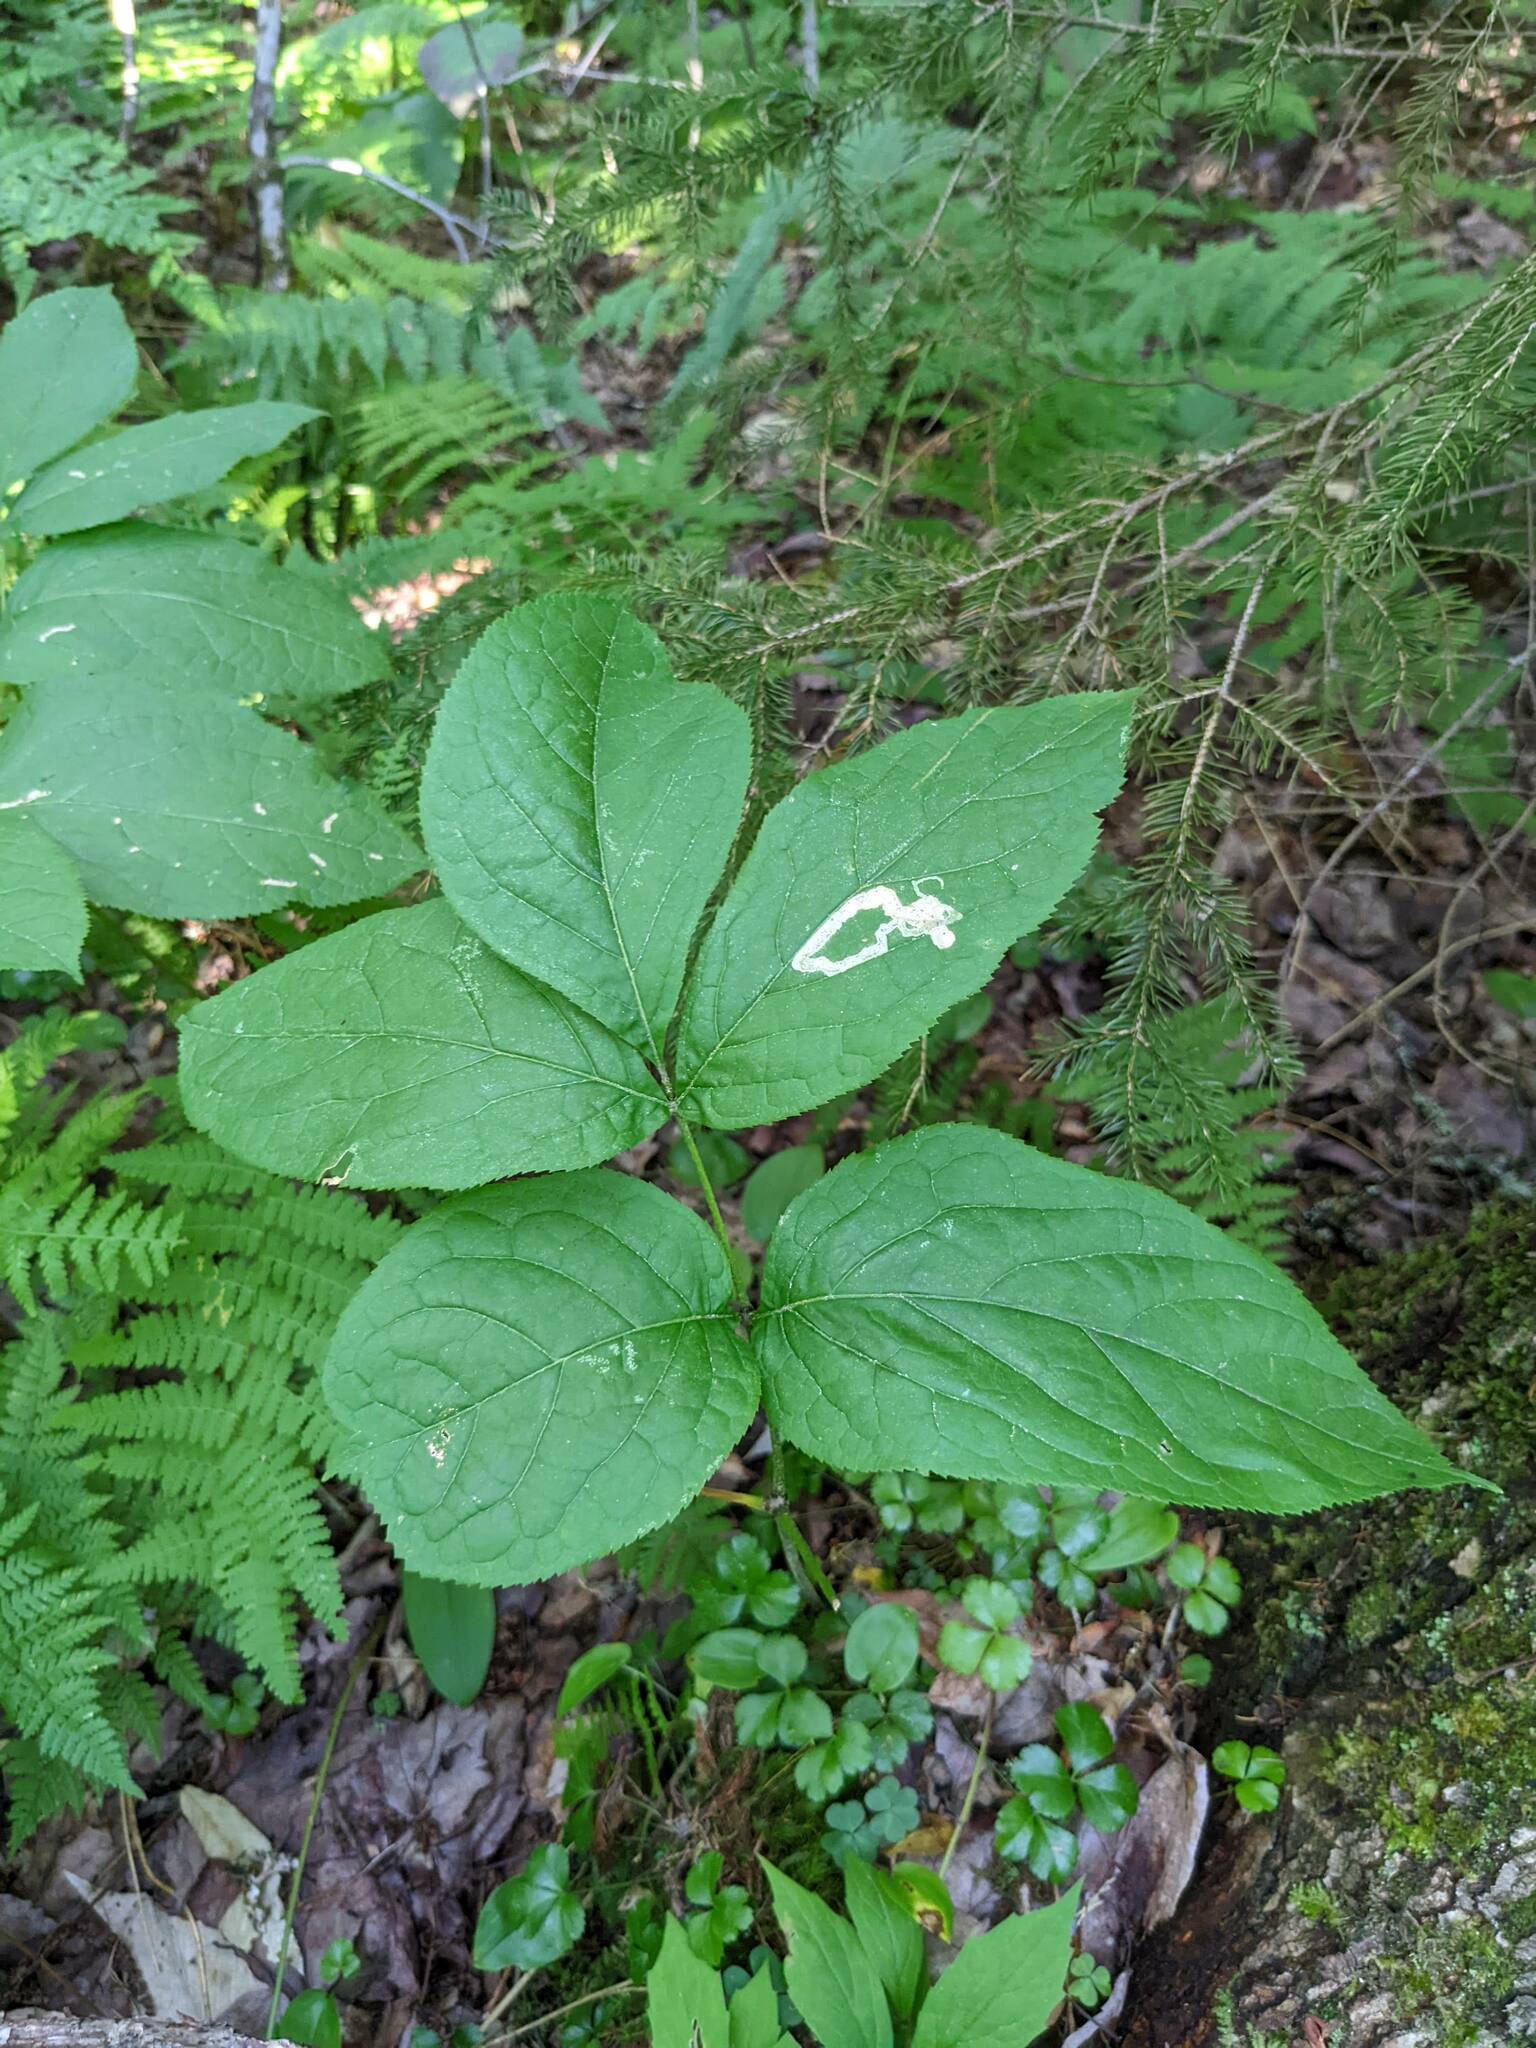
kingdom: Plantae
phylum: Tracheophyta
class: Magnoliopsida
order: Apiales
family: Araliaceae
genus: Aralia
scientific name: Aralia nudicaulis
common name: Wild sarsaparilla
